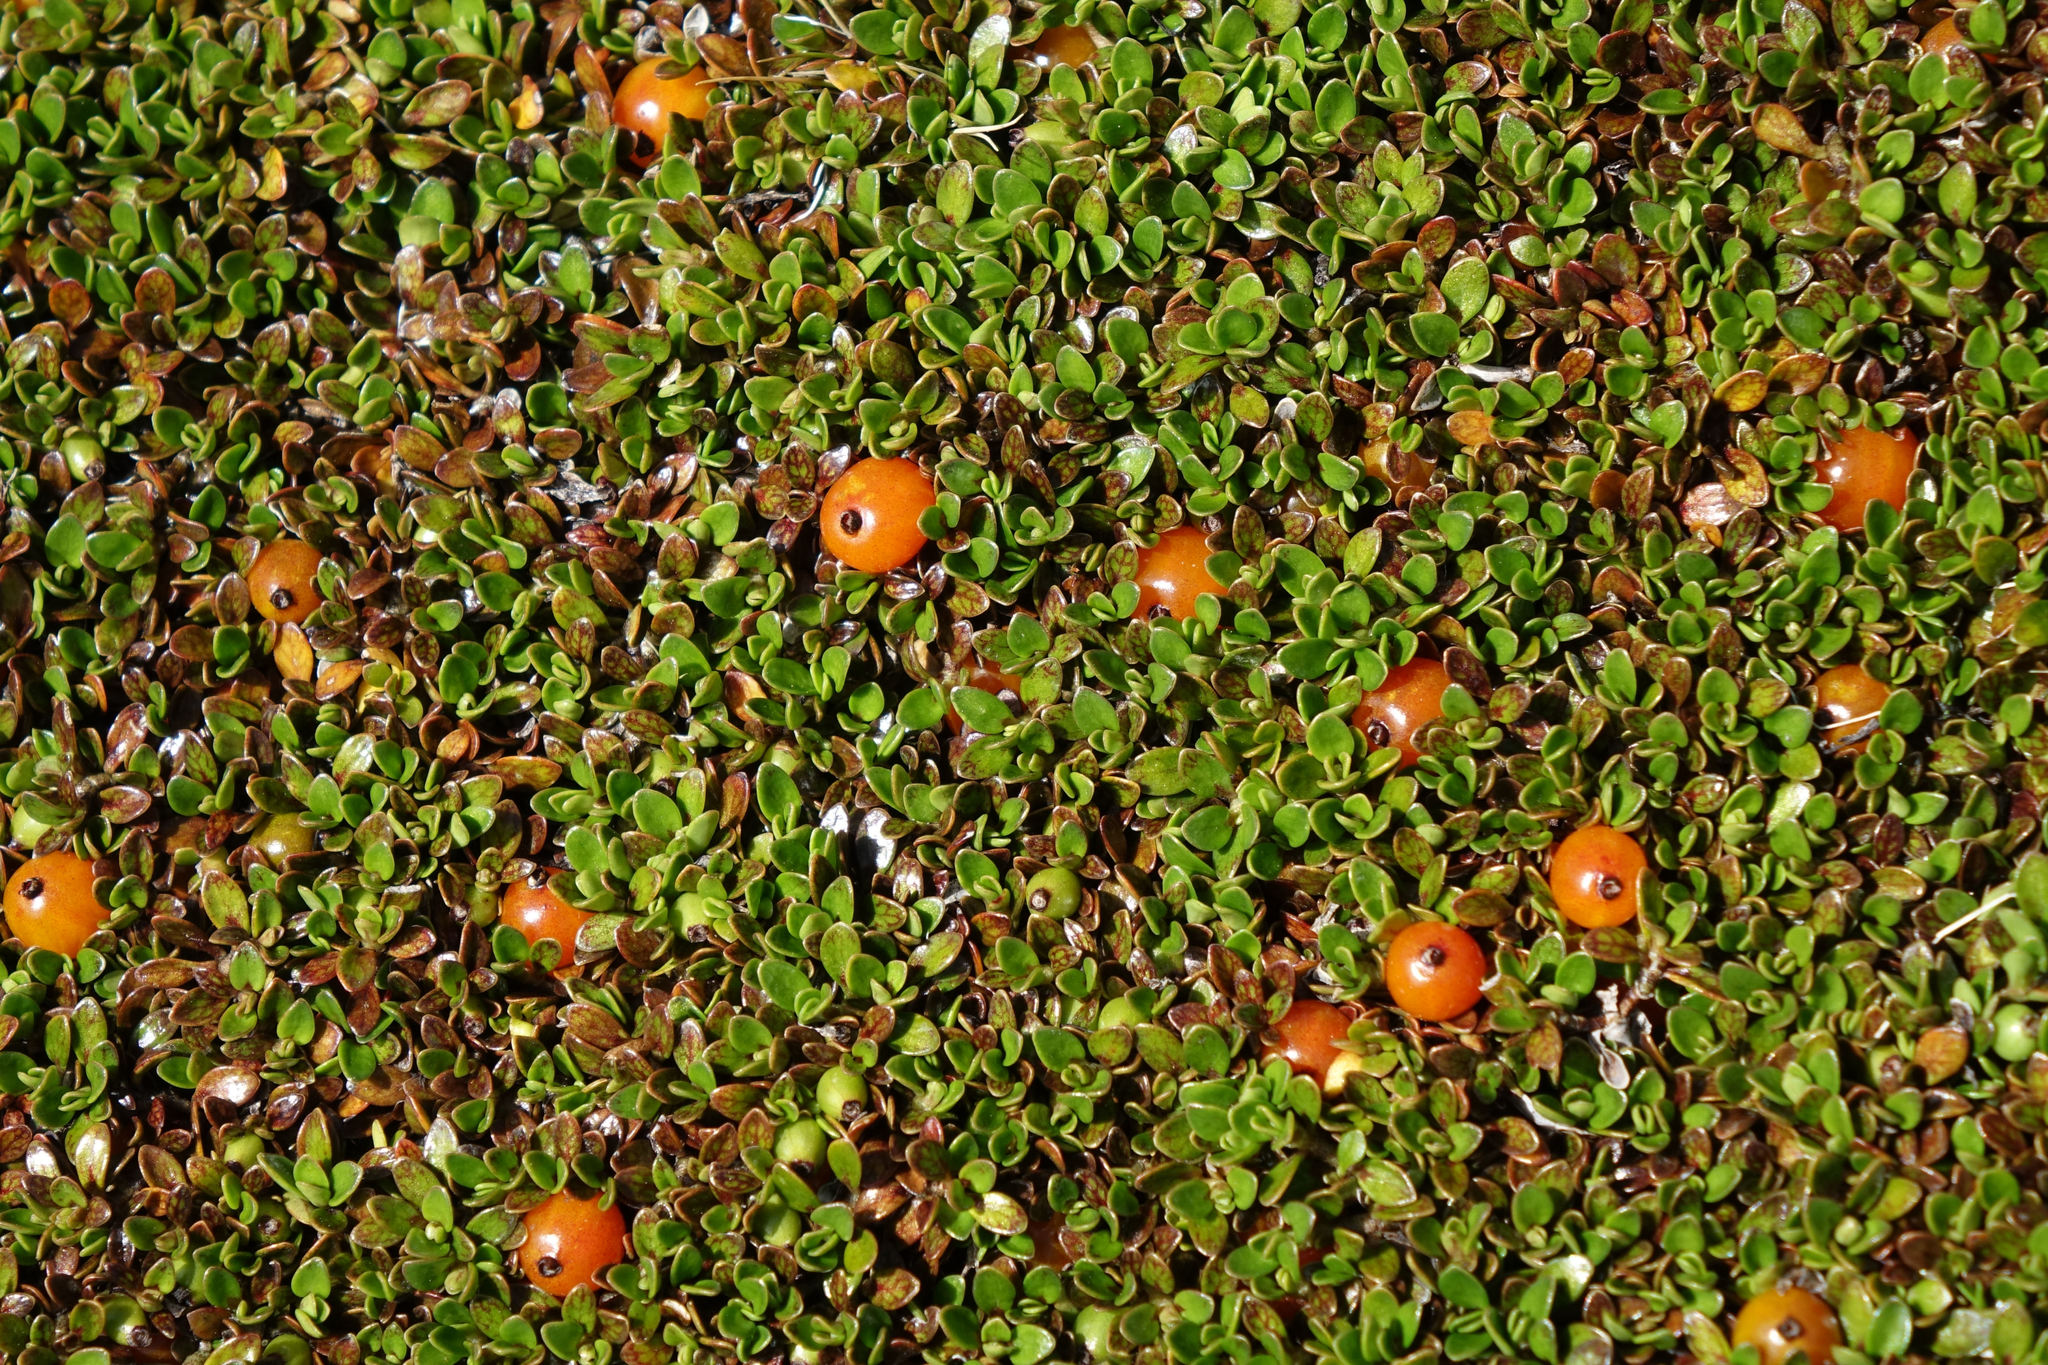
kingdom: Plantae
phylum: Tracheophyta
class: Magnoliopsida
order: Gentianales
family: Rubiaceae
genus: Coprosma
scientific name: Coprosma perpusilla
